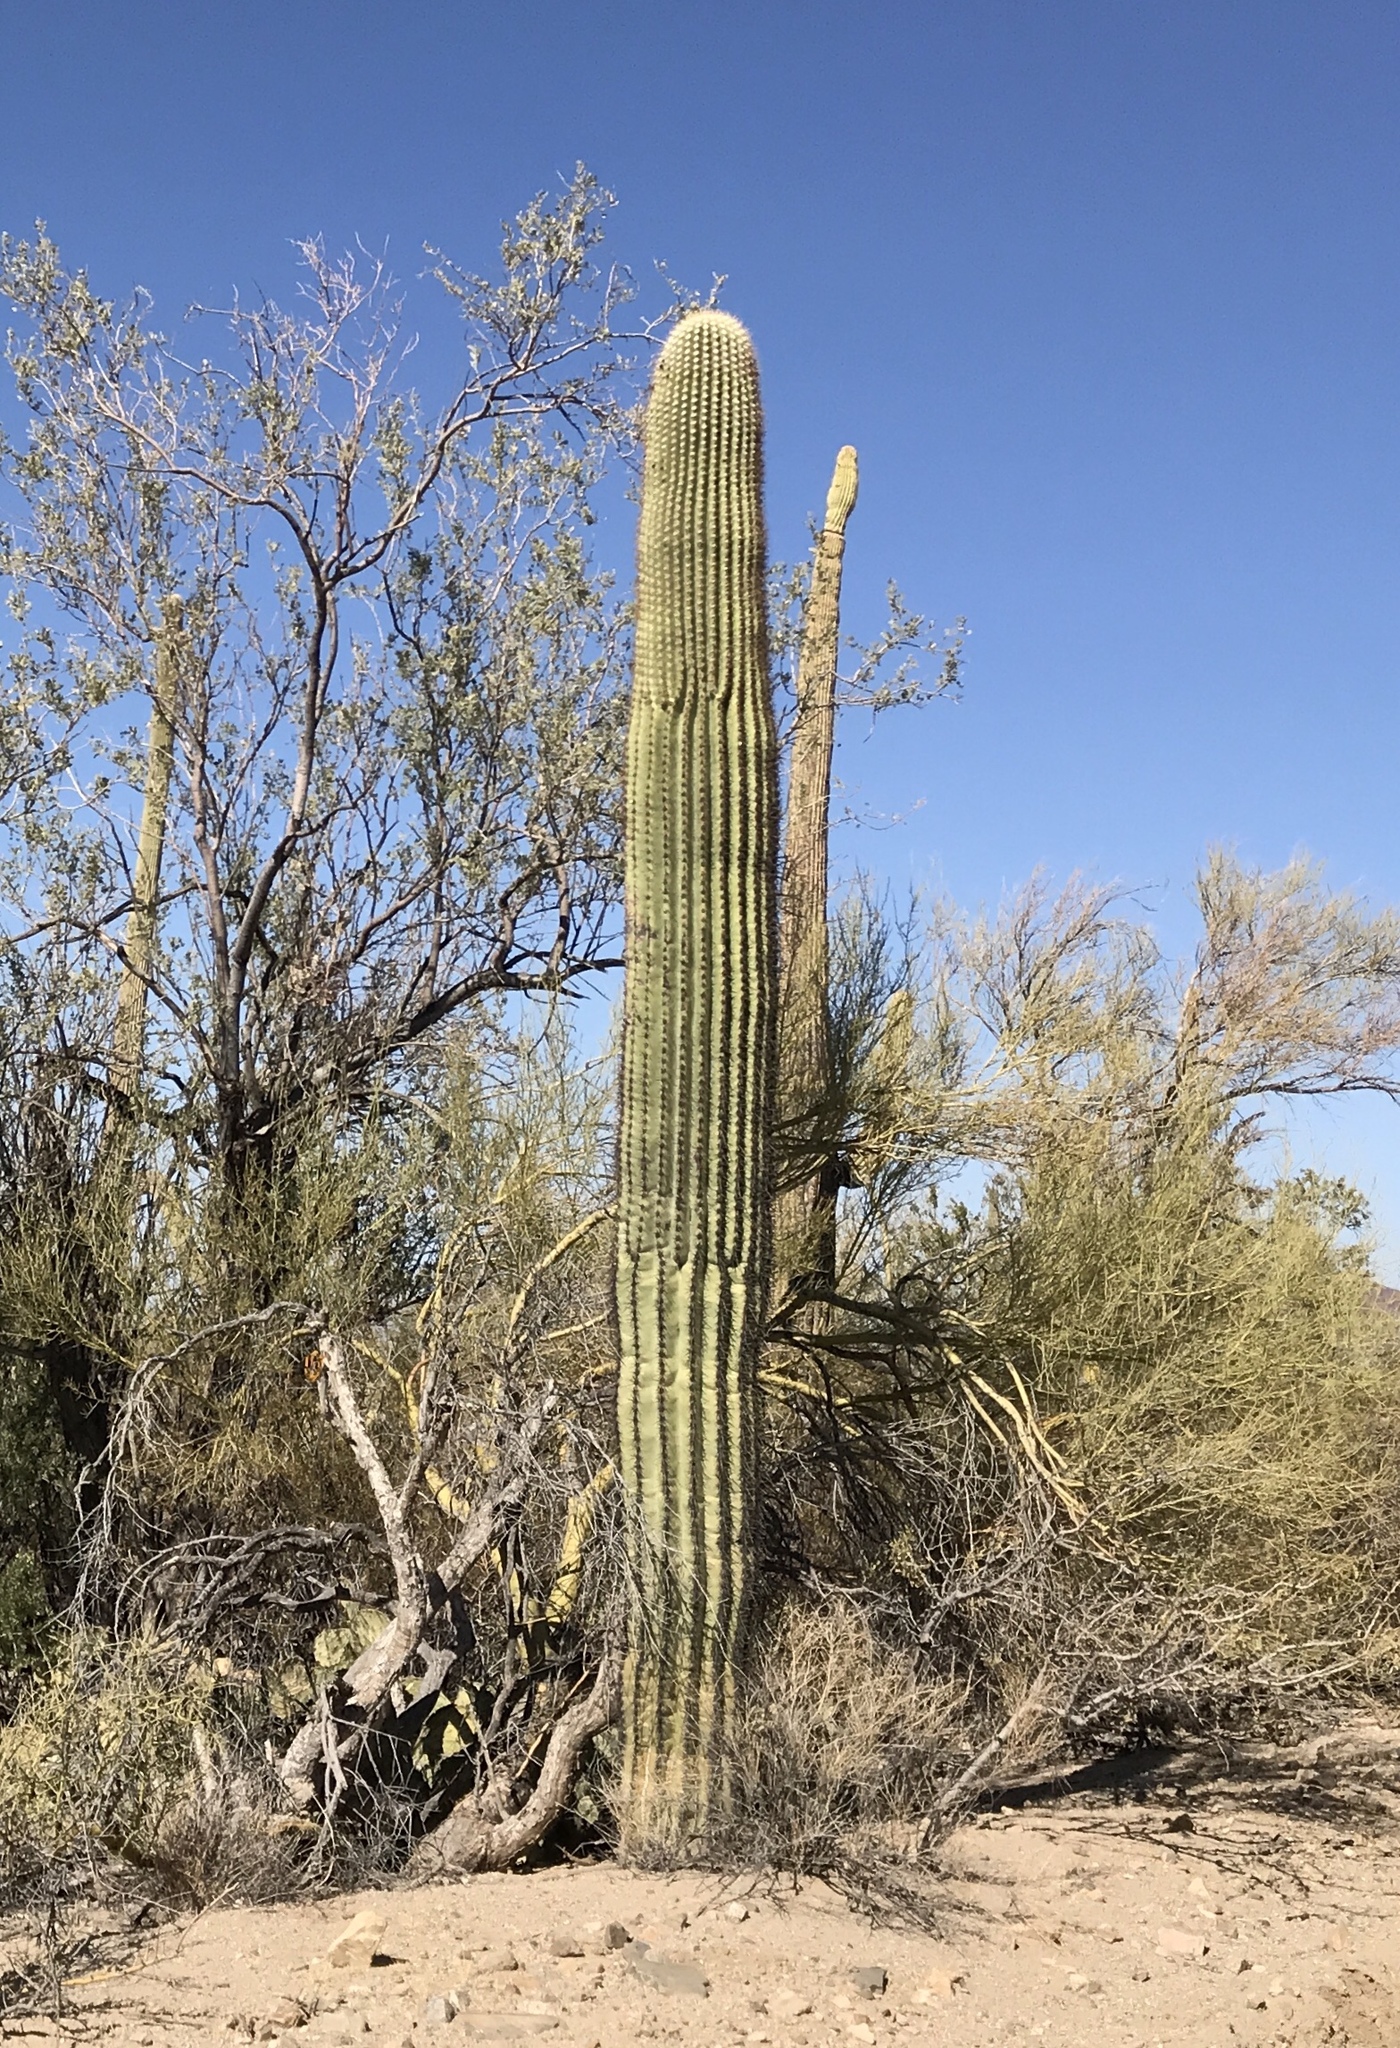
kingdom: Plantae
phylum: Tracheophyta
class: Magnoliopsida
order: Caryophyllales
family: Cactaceae
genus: Carnegiea
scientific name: Carnegiea gigantea
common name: Saguaro
